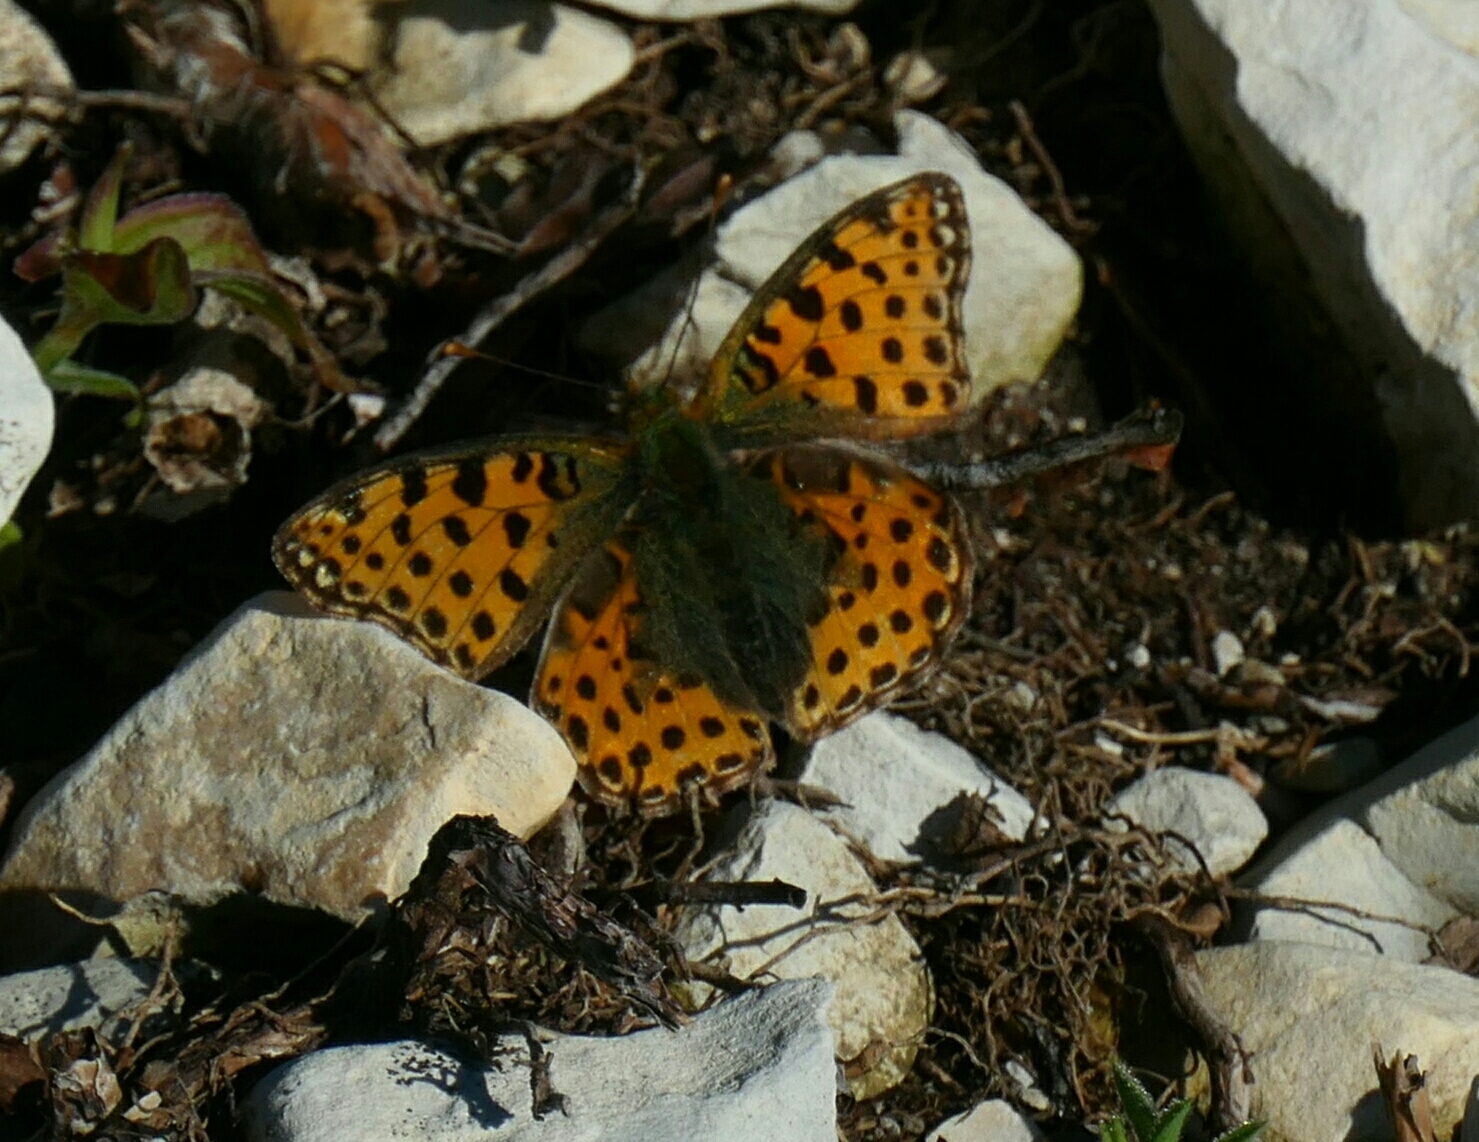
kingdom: Animalia
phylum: Arthropoda
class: Insecta
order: Lepidoptera
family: Nymphalidae
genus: Issoria
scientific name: Issoria lathonia
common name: Queen of spain fritillary
